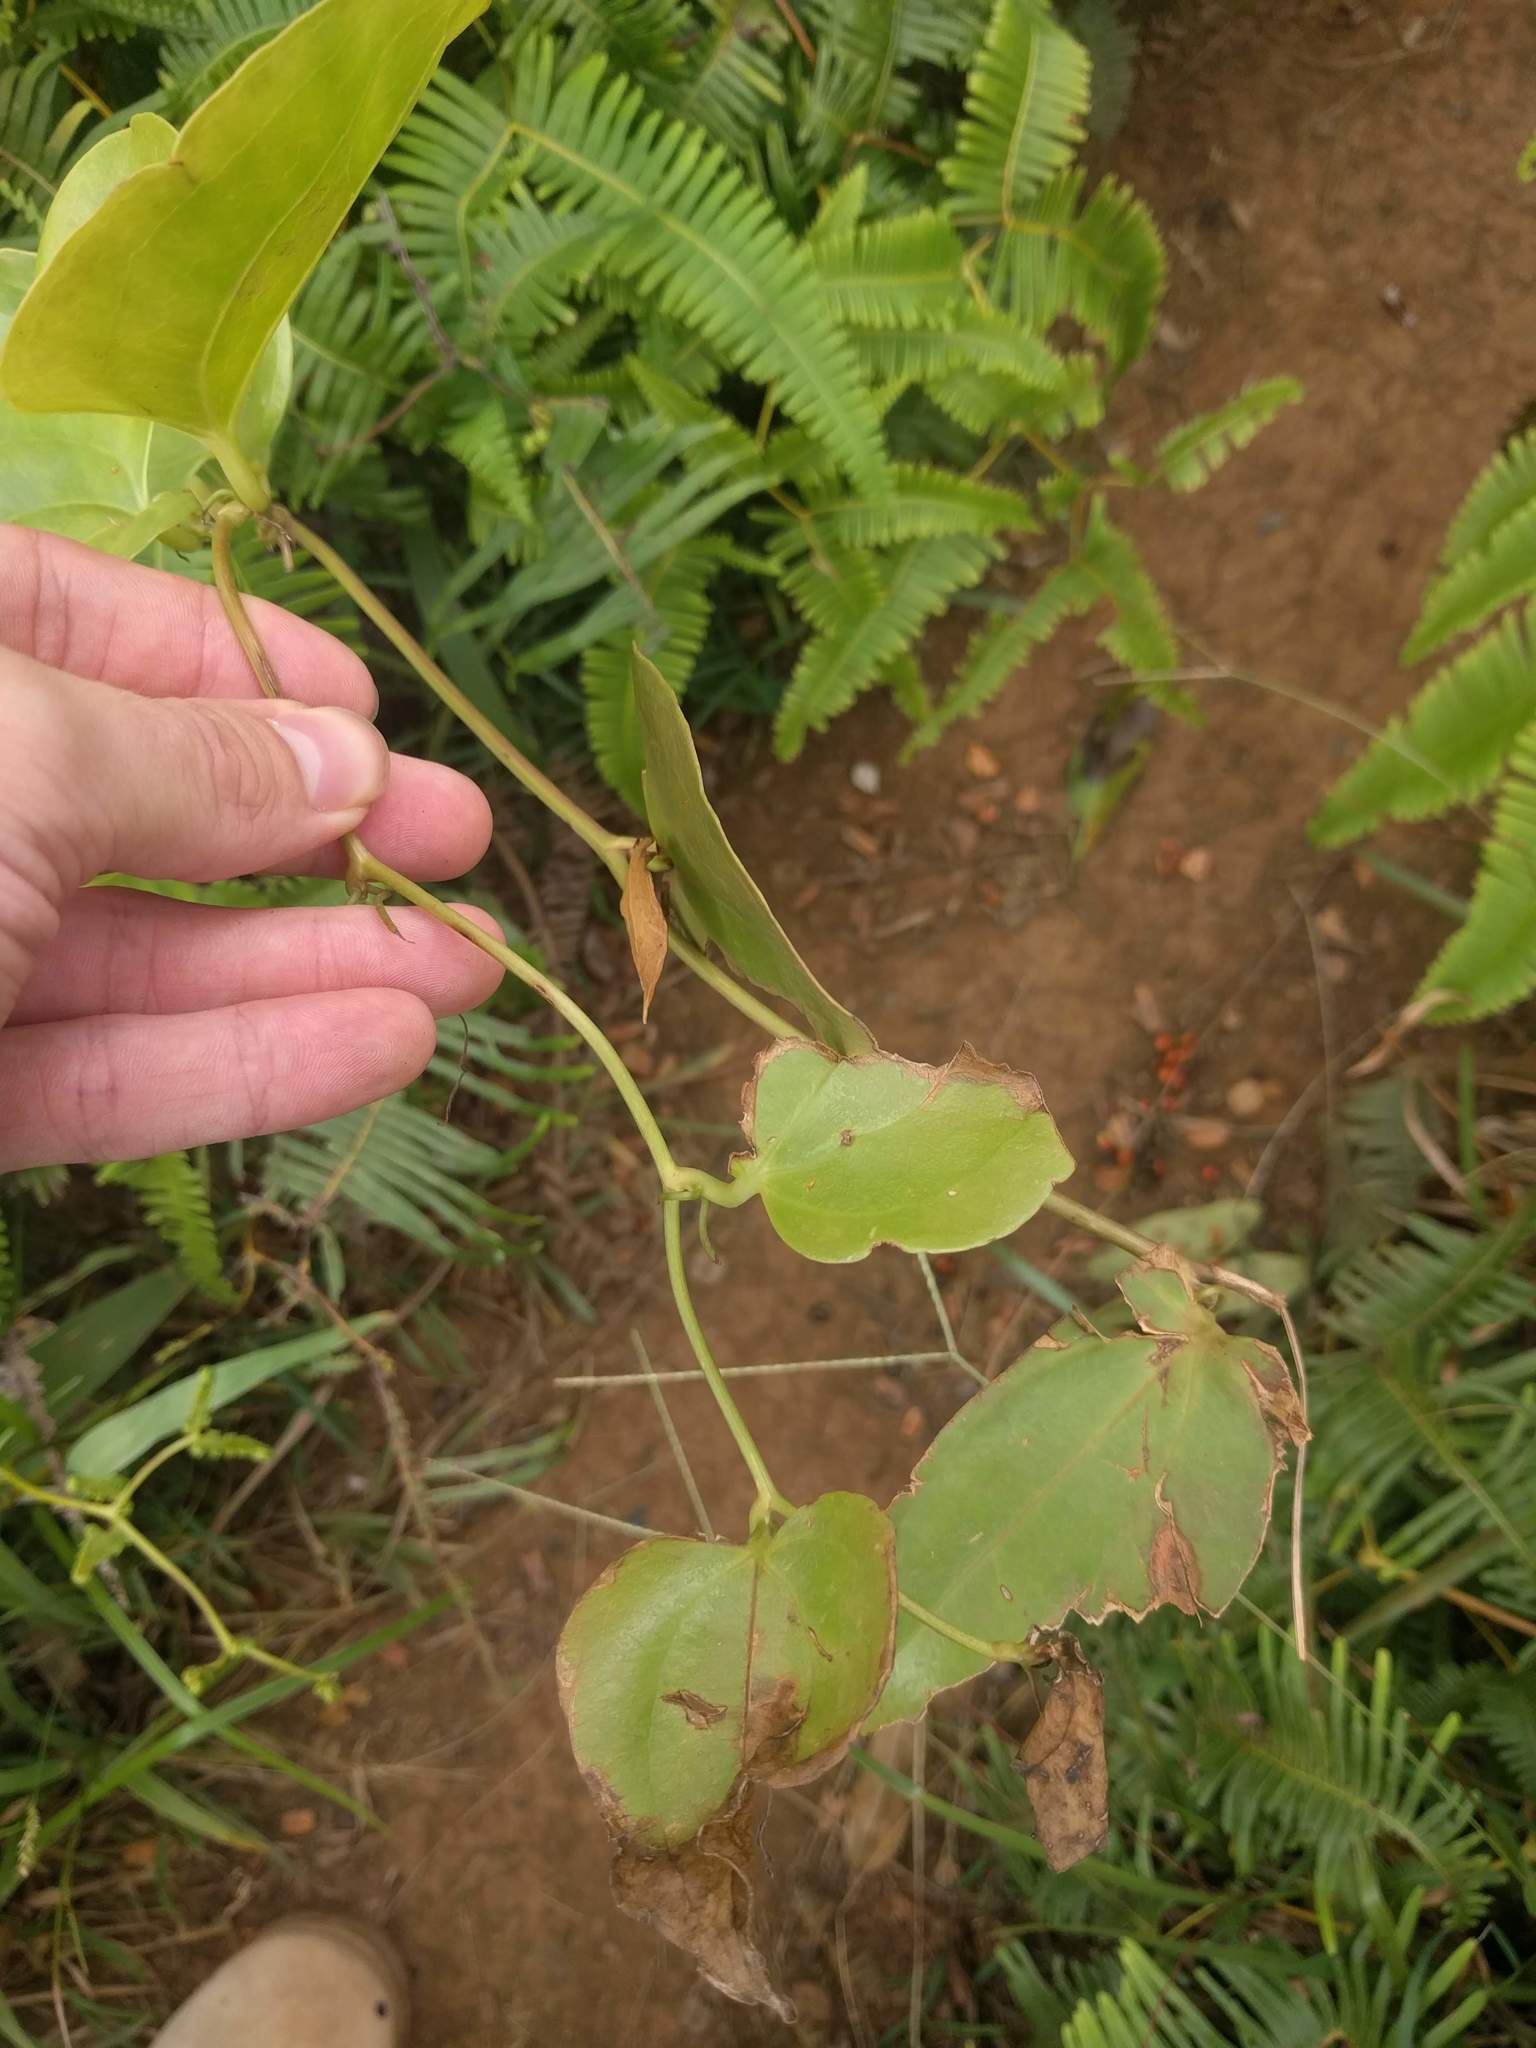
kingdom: Plantae
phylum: Tracheophyta
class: Liliopsida
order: Liliales
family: Smilacaceae
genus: Smilax
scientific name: Smilax melastomifolia
